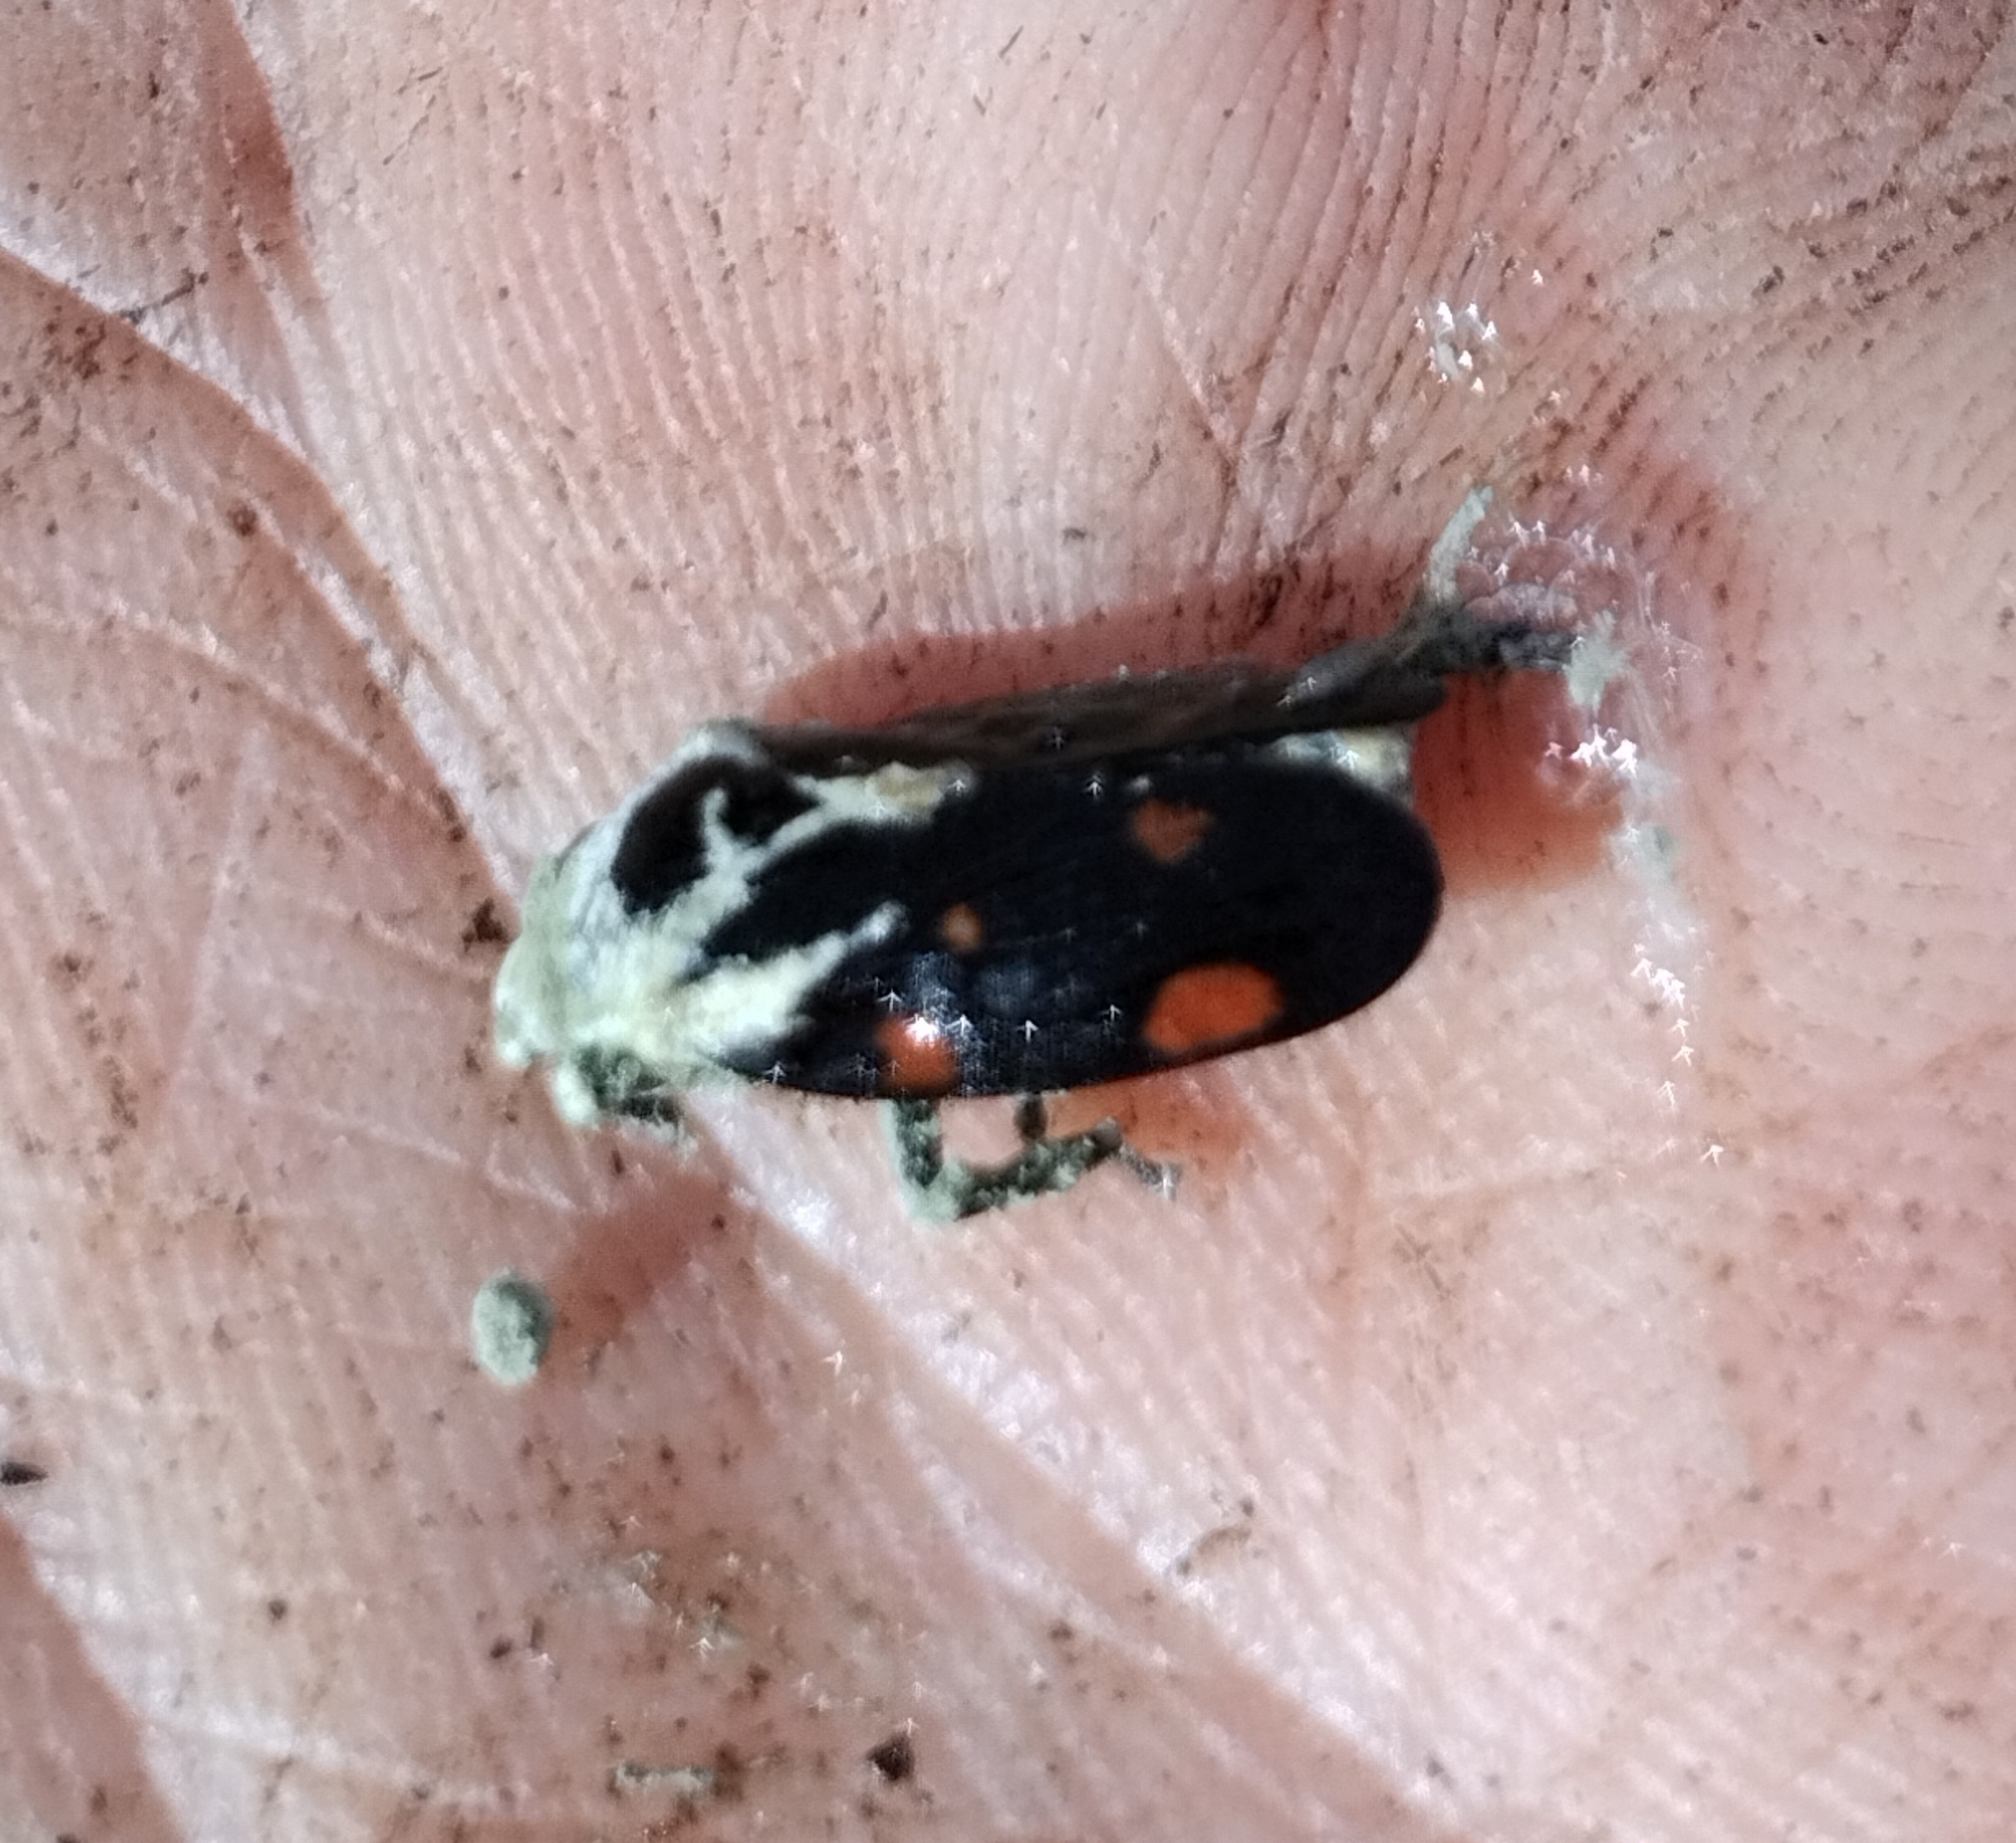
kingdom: Animalia
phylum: Arthropoda
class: Insecta
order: Hemiptera
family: Cercopidae
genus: Kanaima
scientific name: Kanaima fluvialis
